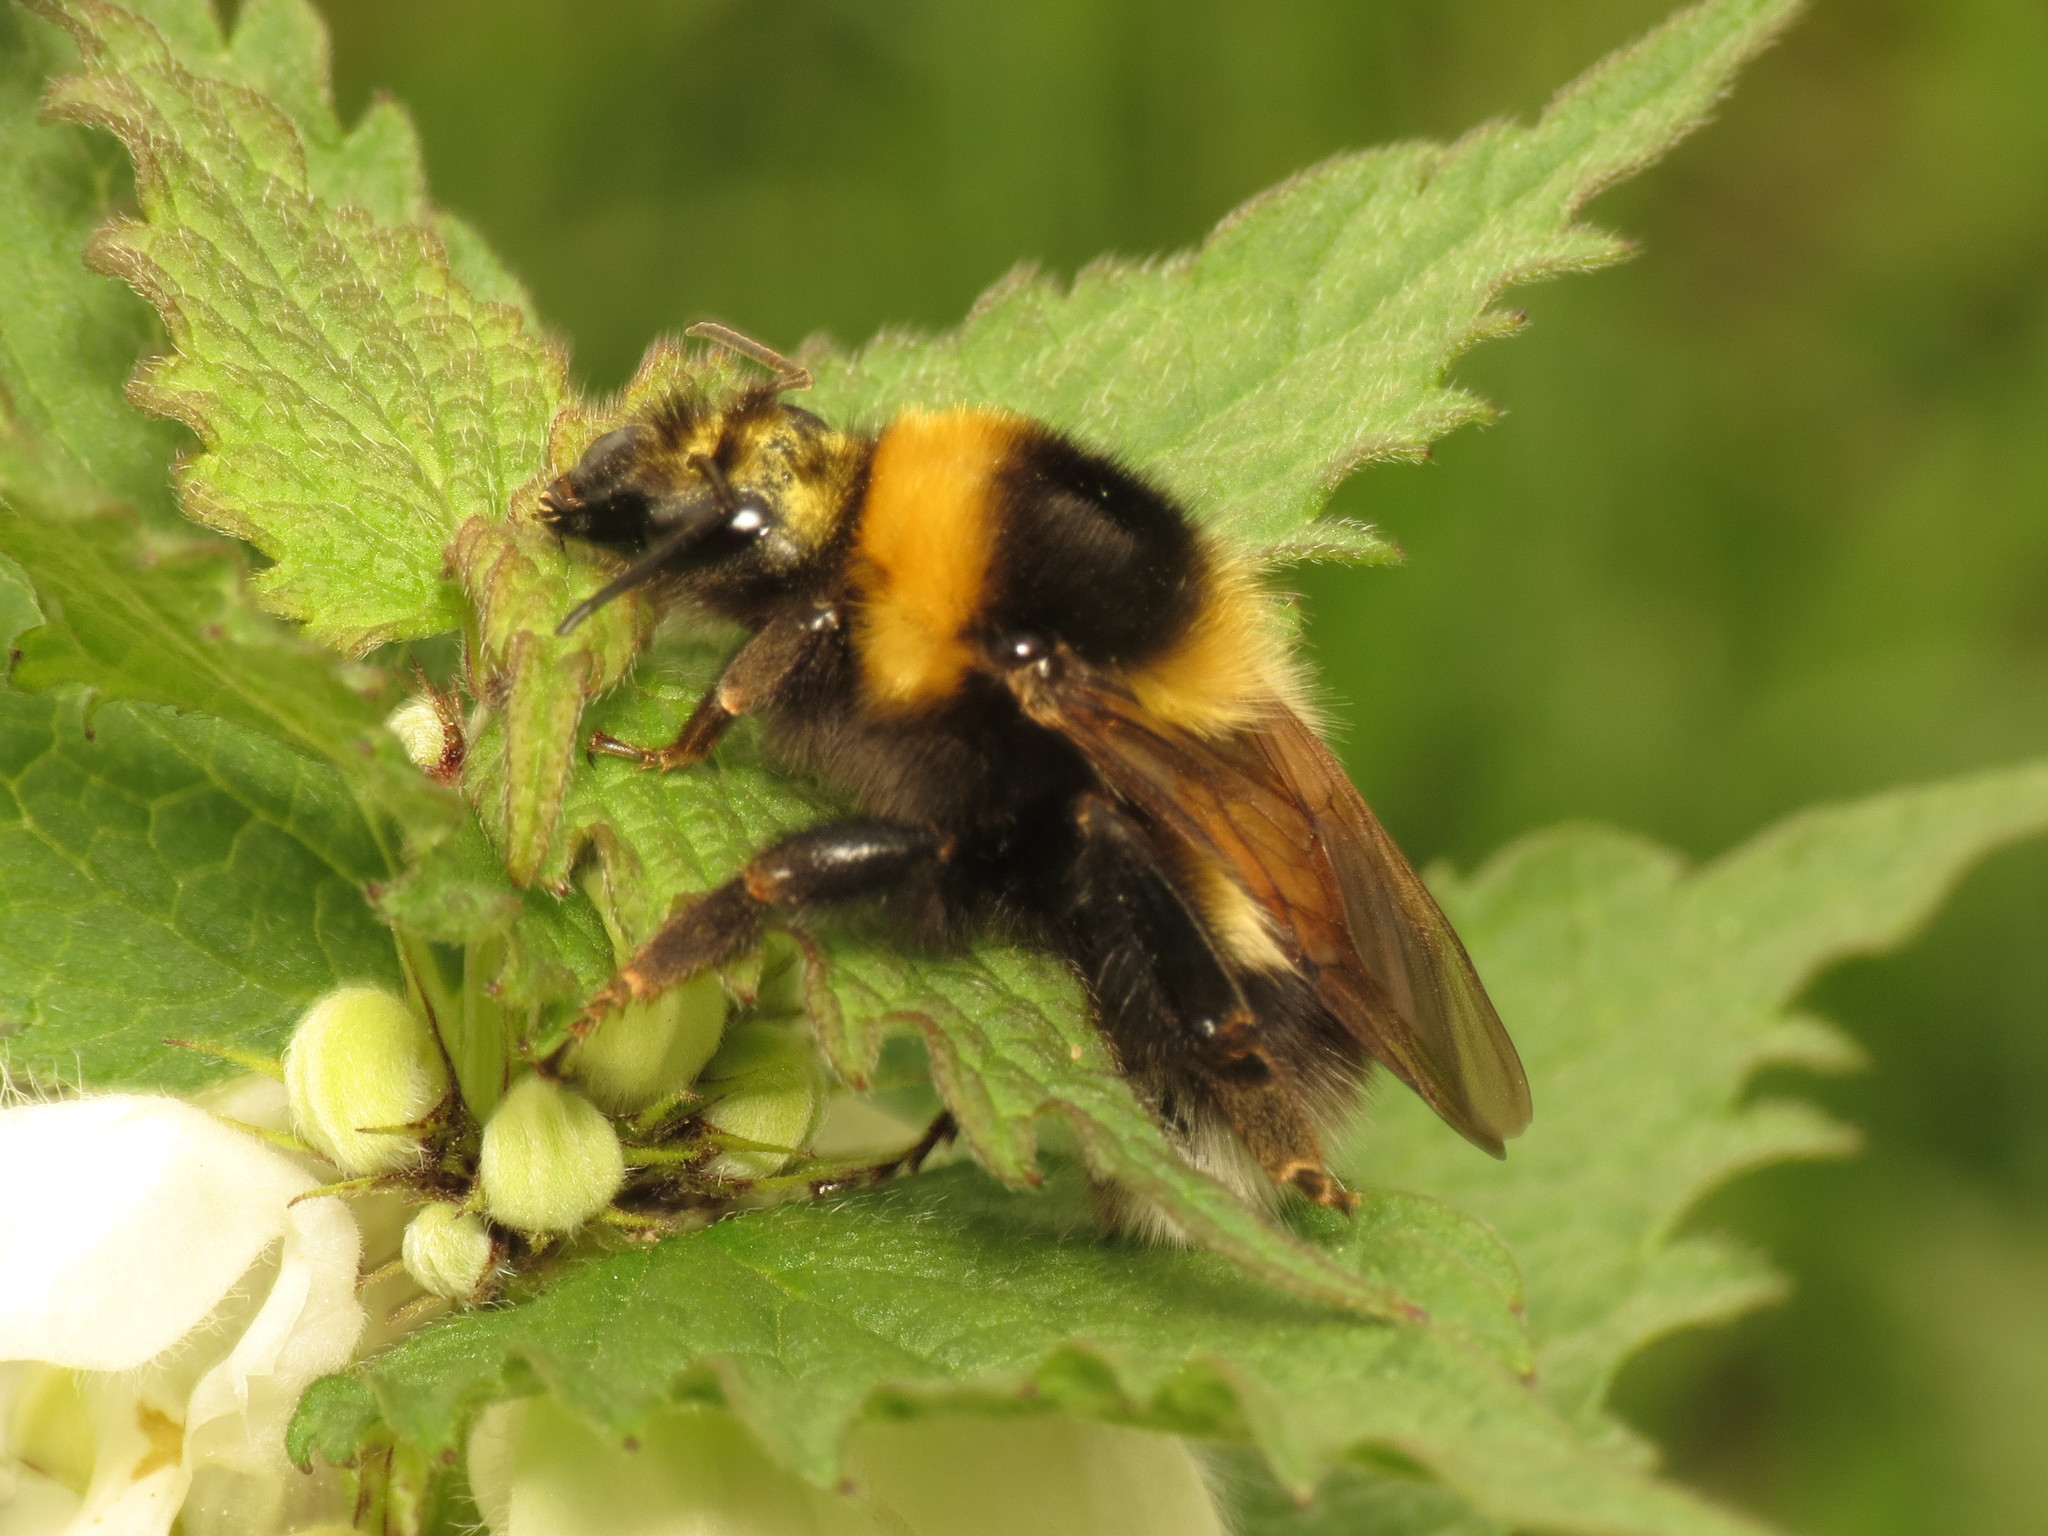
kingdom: Animalia
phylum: Arthropoda
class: Insecta
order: Hymenoptera
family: Apidae
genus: Bombus
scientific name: Bombus hortorum
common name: Garden bumblebee
